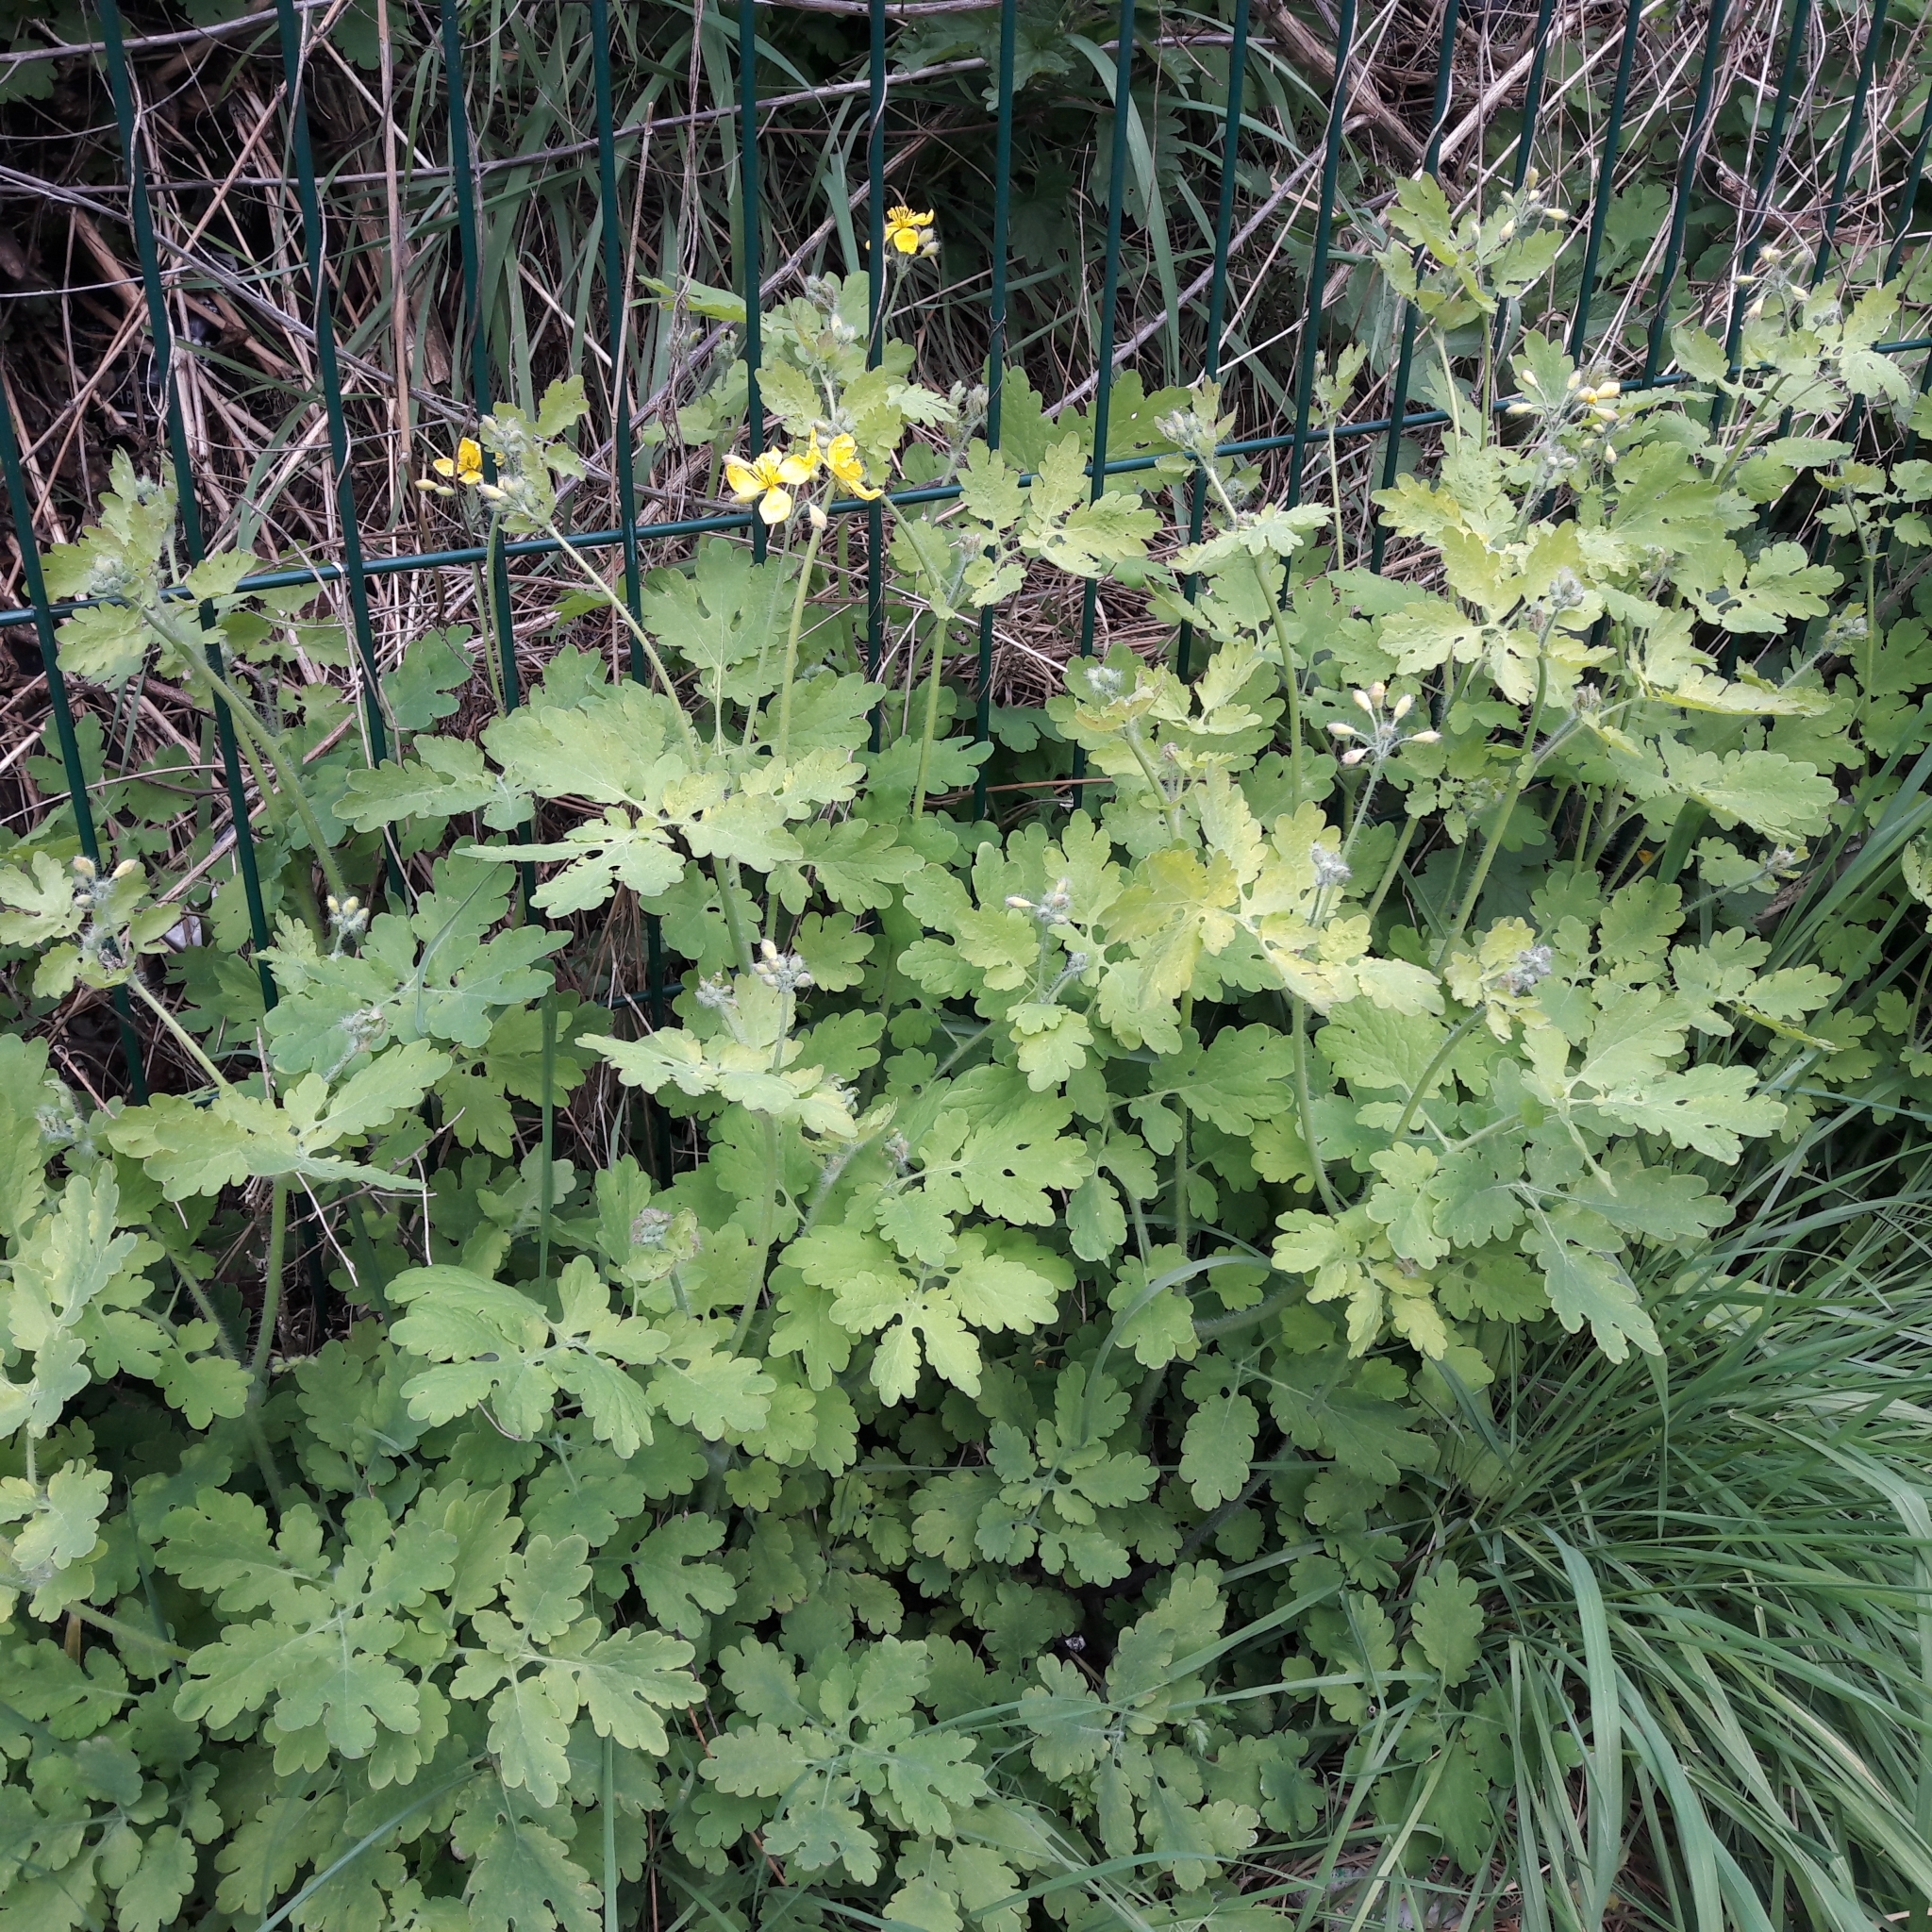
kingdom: Plantae
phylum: Tracheophyta
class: Magnoliopsida
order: Ranunculales
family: Papaveraceae
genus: Chelidonium
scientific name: Chelidonium majus
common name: Greater celandine
